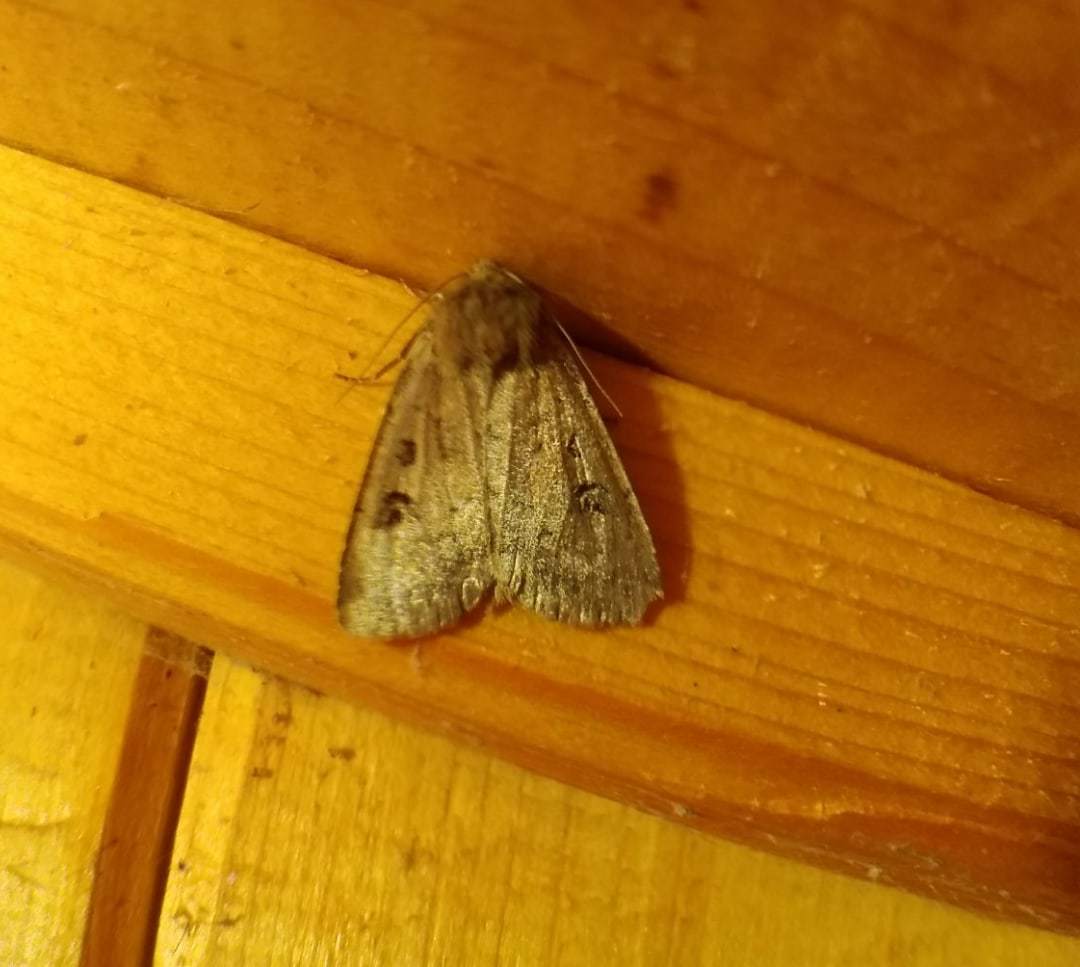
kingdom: Animalia
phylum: Arthropoda
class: Insecta
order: Lepidoptera
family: Noctuidae
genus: Graphiphora
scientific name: Graphiphora augur
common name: Double dart
